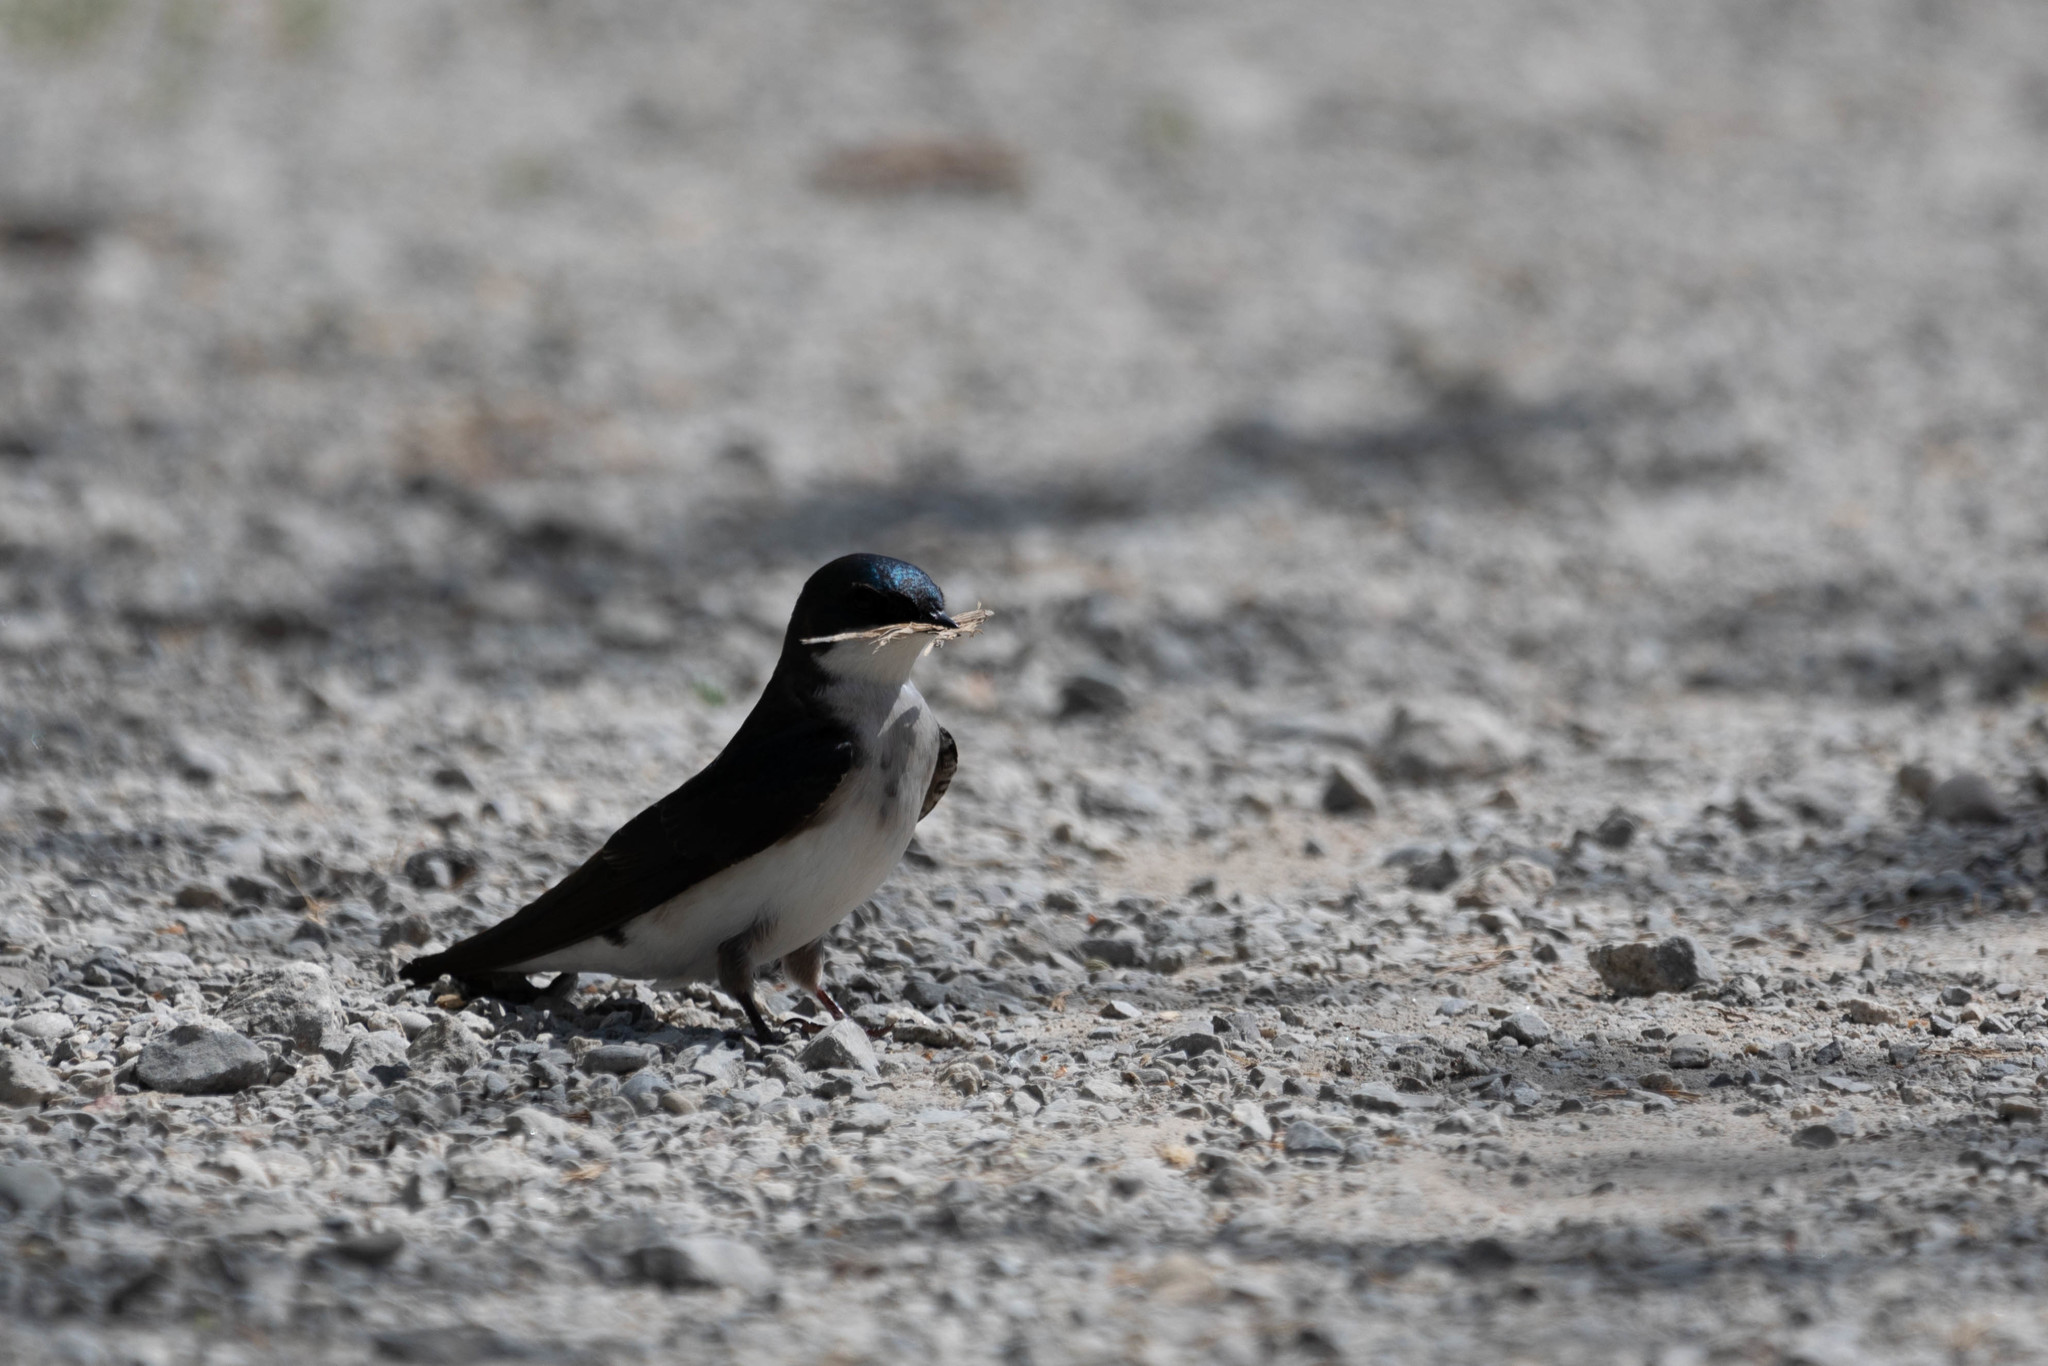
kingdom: Animalia
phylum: Chordata
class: Aves
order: Passeriformes
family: Hirundinidae
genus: Tachycineta
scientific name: Tachycineta bicolor
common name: Tree swallow
